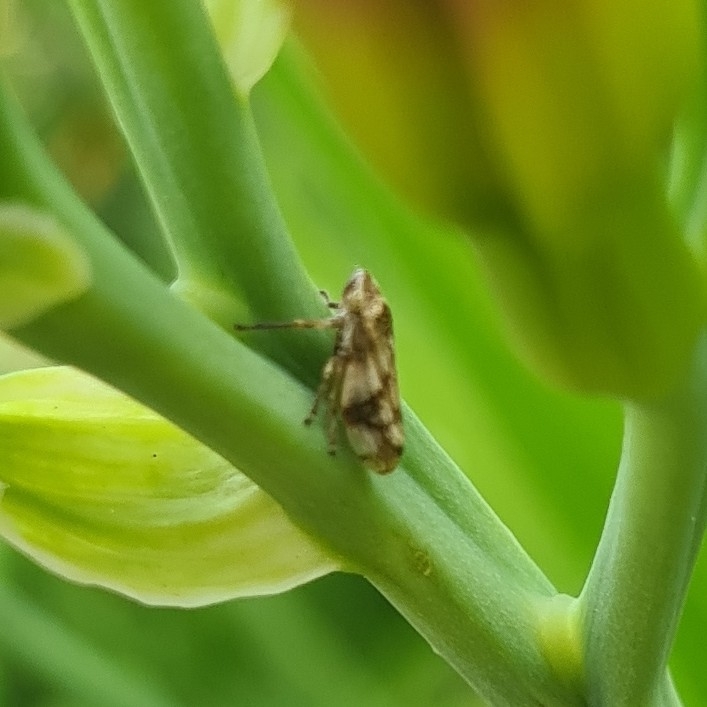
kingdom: Animalia
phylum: Arthropoda
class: Insecta
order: Hemiptera
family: Aphrophoridae
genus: Philaenus
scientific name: Philaenus spumarius
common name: Meadow spittlebug
